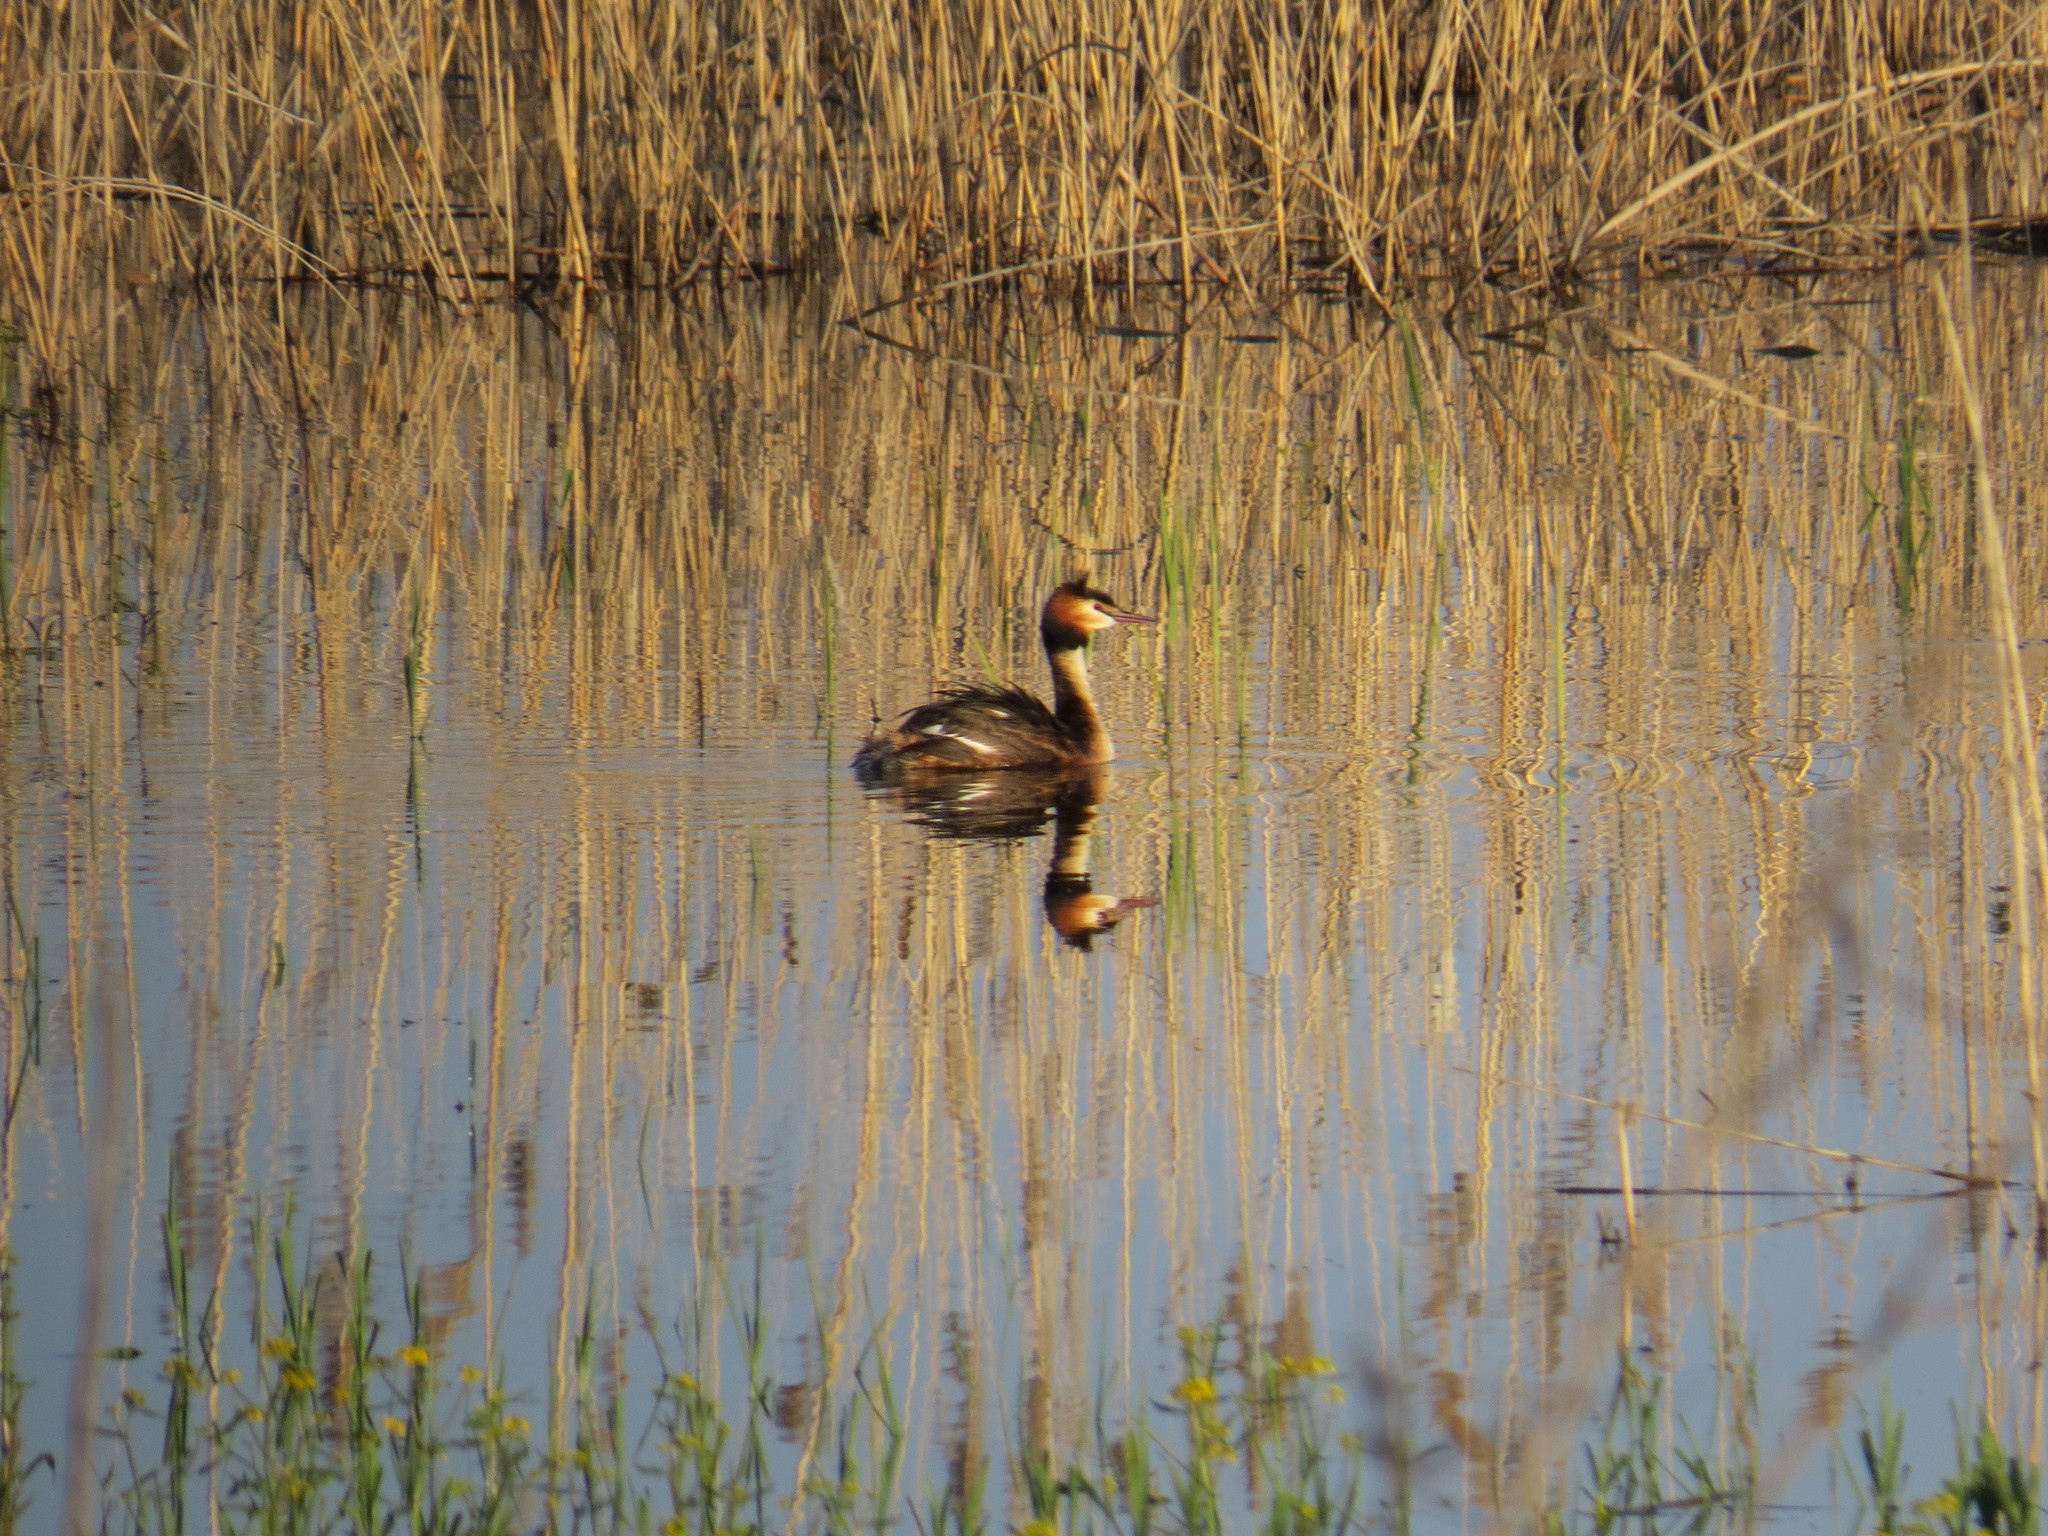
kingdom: Animalia
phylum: Chordata
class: Aves
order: Podicipediformes
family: Podicipedidae
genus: Podiceps
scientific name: Podiceps cristatus
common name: Great crested grebe
